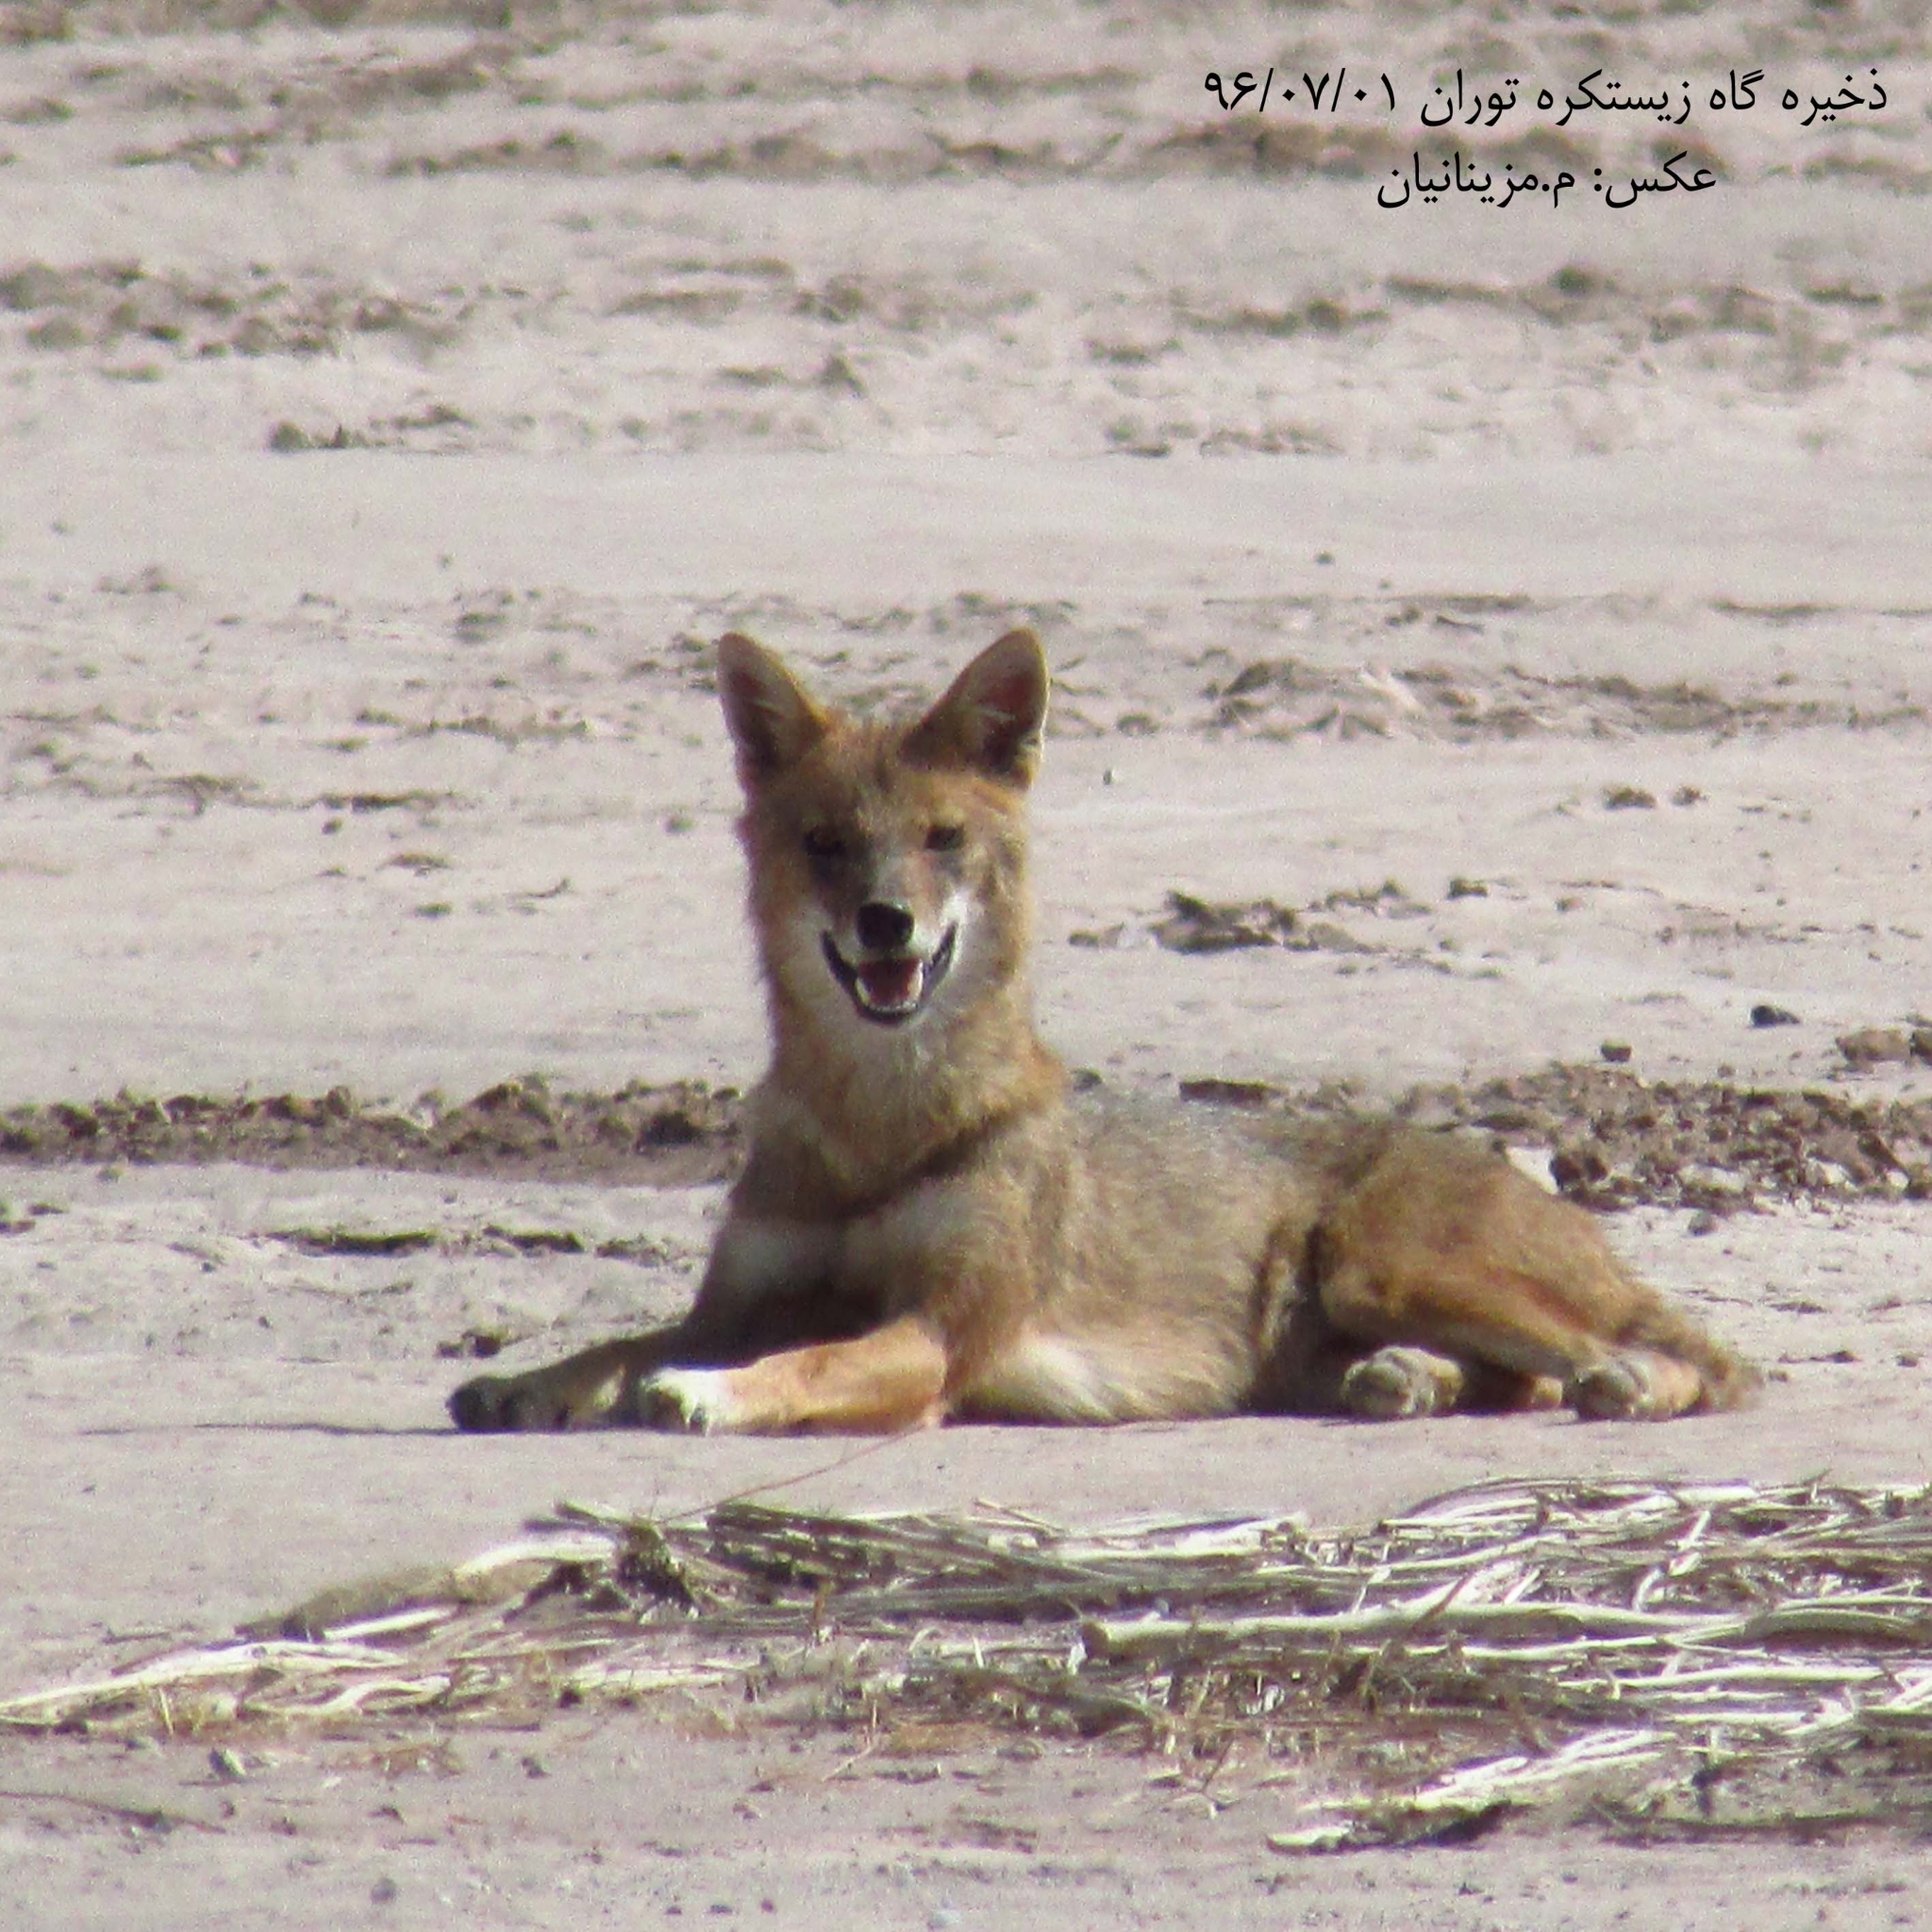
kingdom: Animalia
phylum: Chordata
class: Mammalia
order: Carnivora
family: Canidae
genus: Canis
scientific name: Canis aureus
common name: Golden jackal
